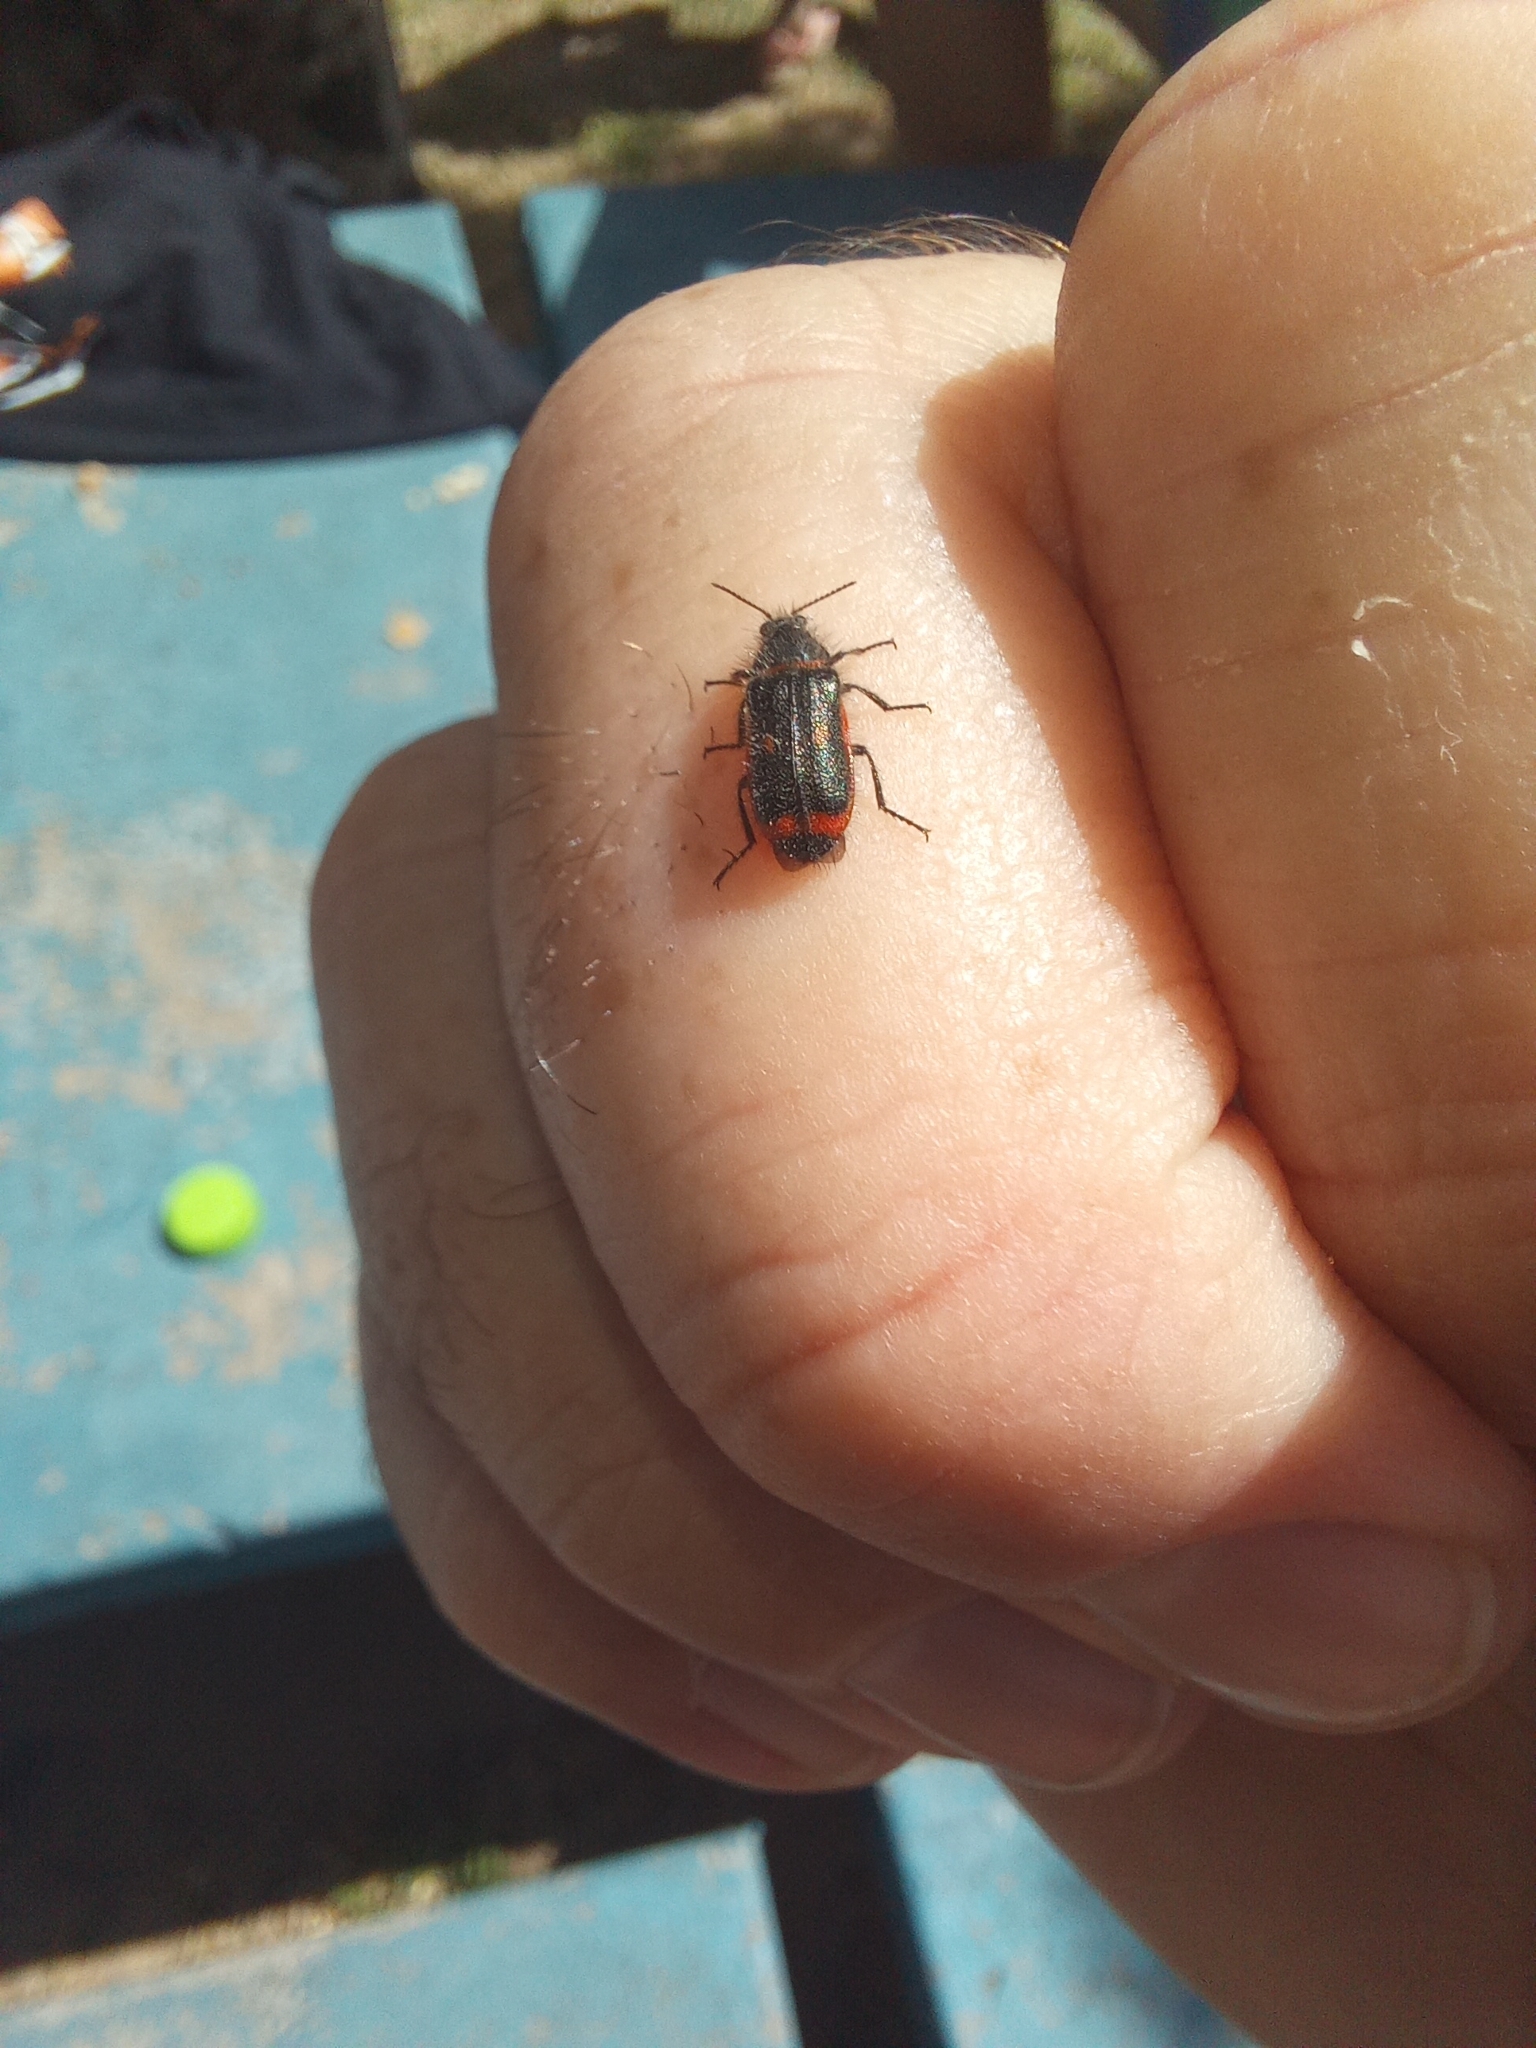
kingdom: Animalia
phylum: Arthropoda
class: Insecta
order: Coleoptera
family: Melyridae
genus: Astylus
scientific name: Astylus
